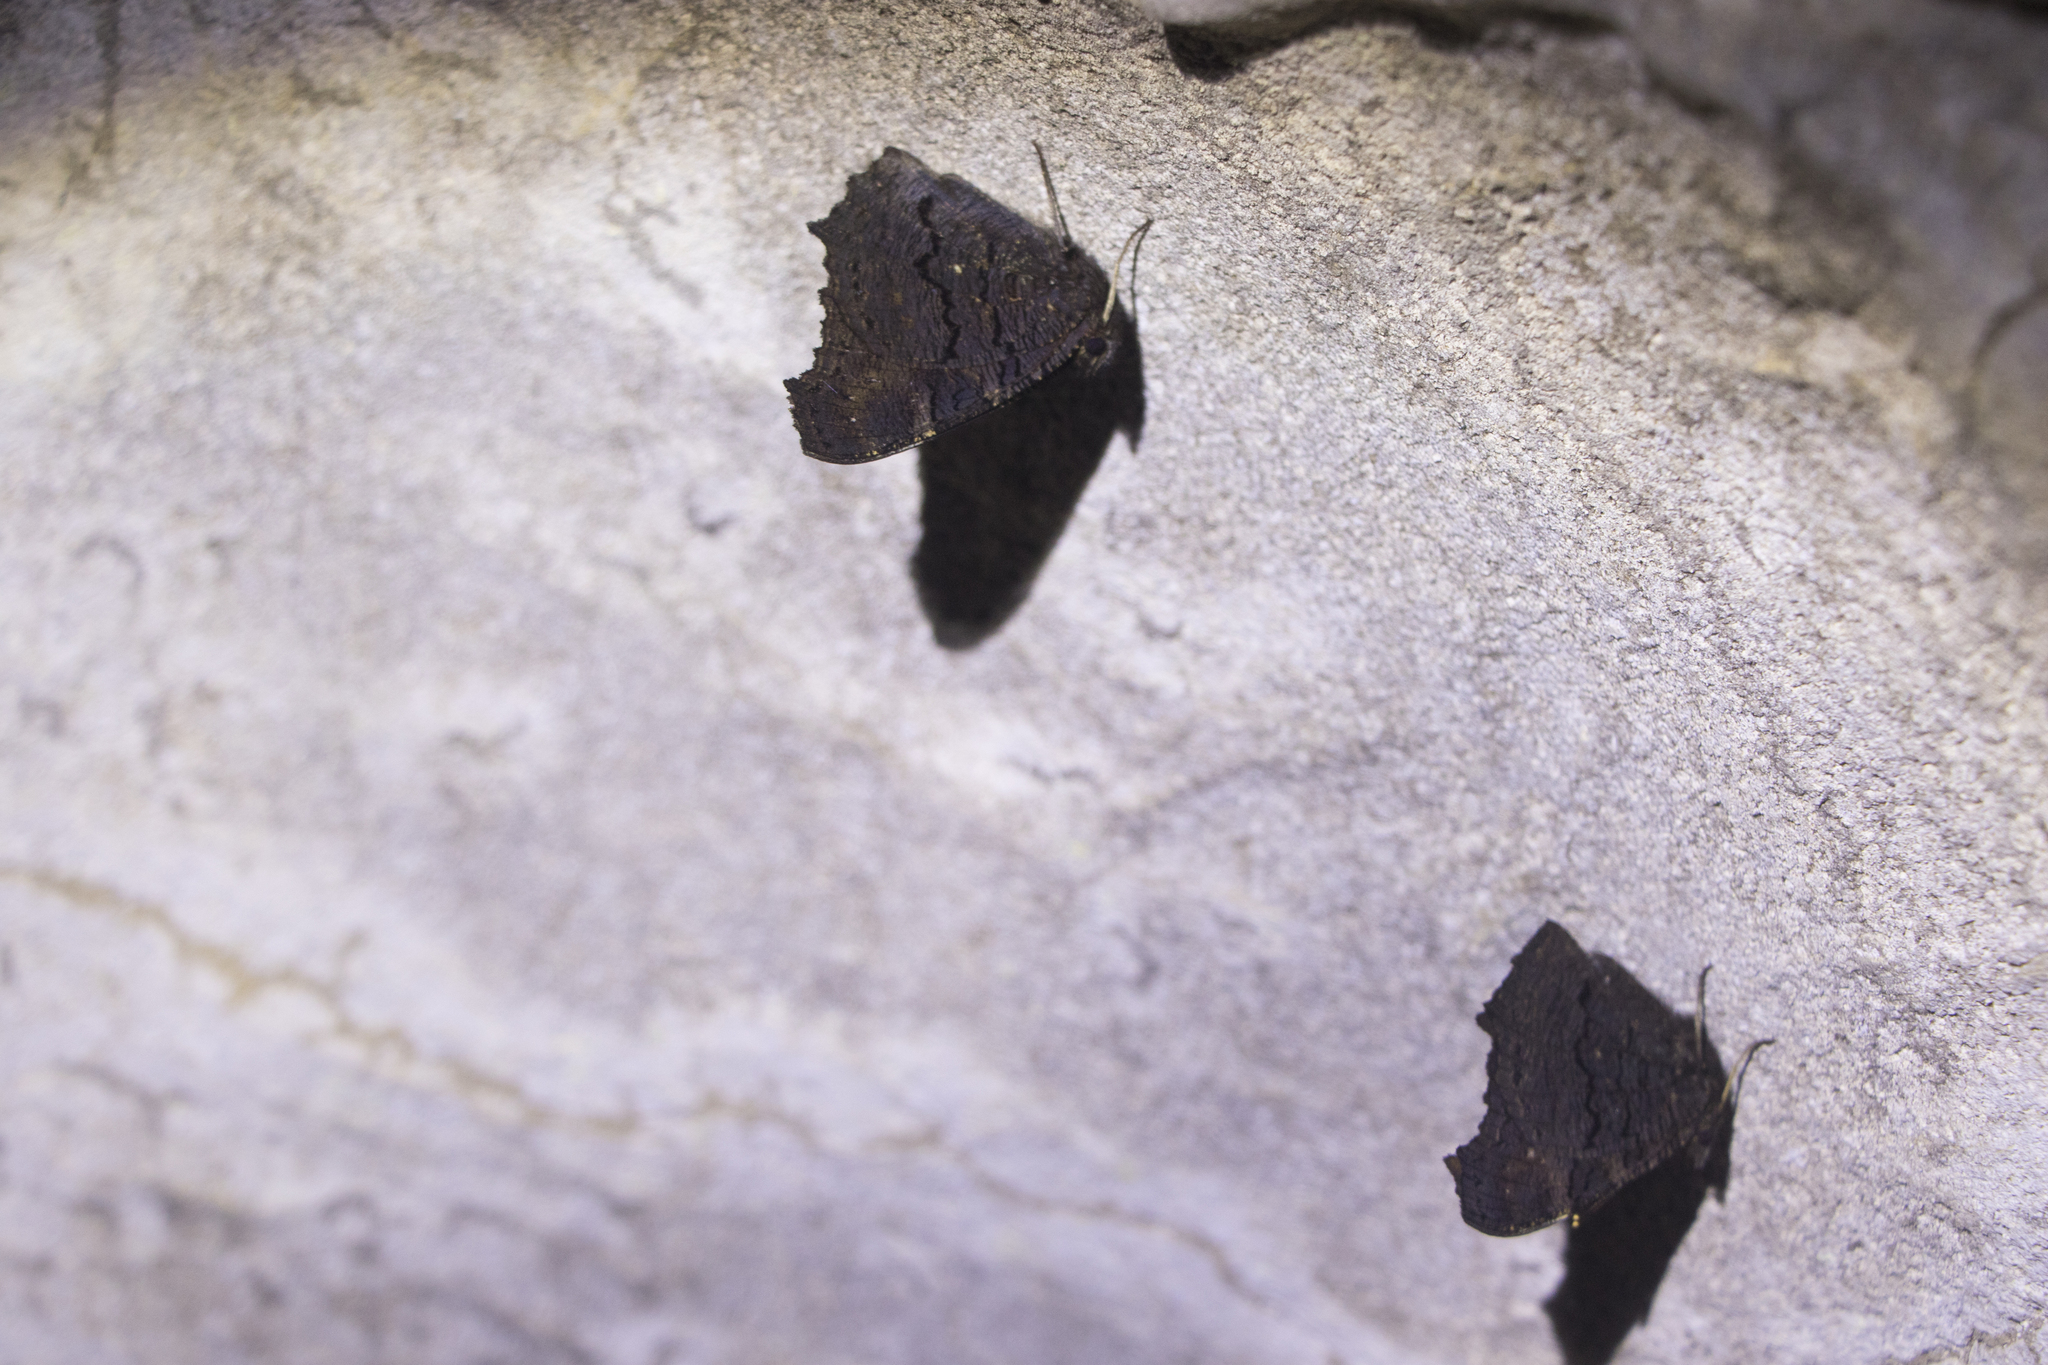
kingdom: Animalia
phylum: Arthropoda
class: Insecta
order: Lepidoptera
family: Nymphalidae
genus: Aglais
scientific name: Aglais io
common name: Peacock
